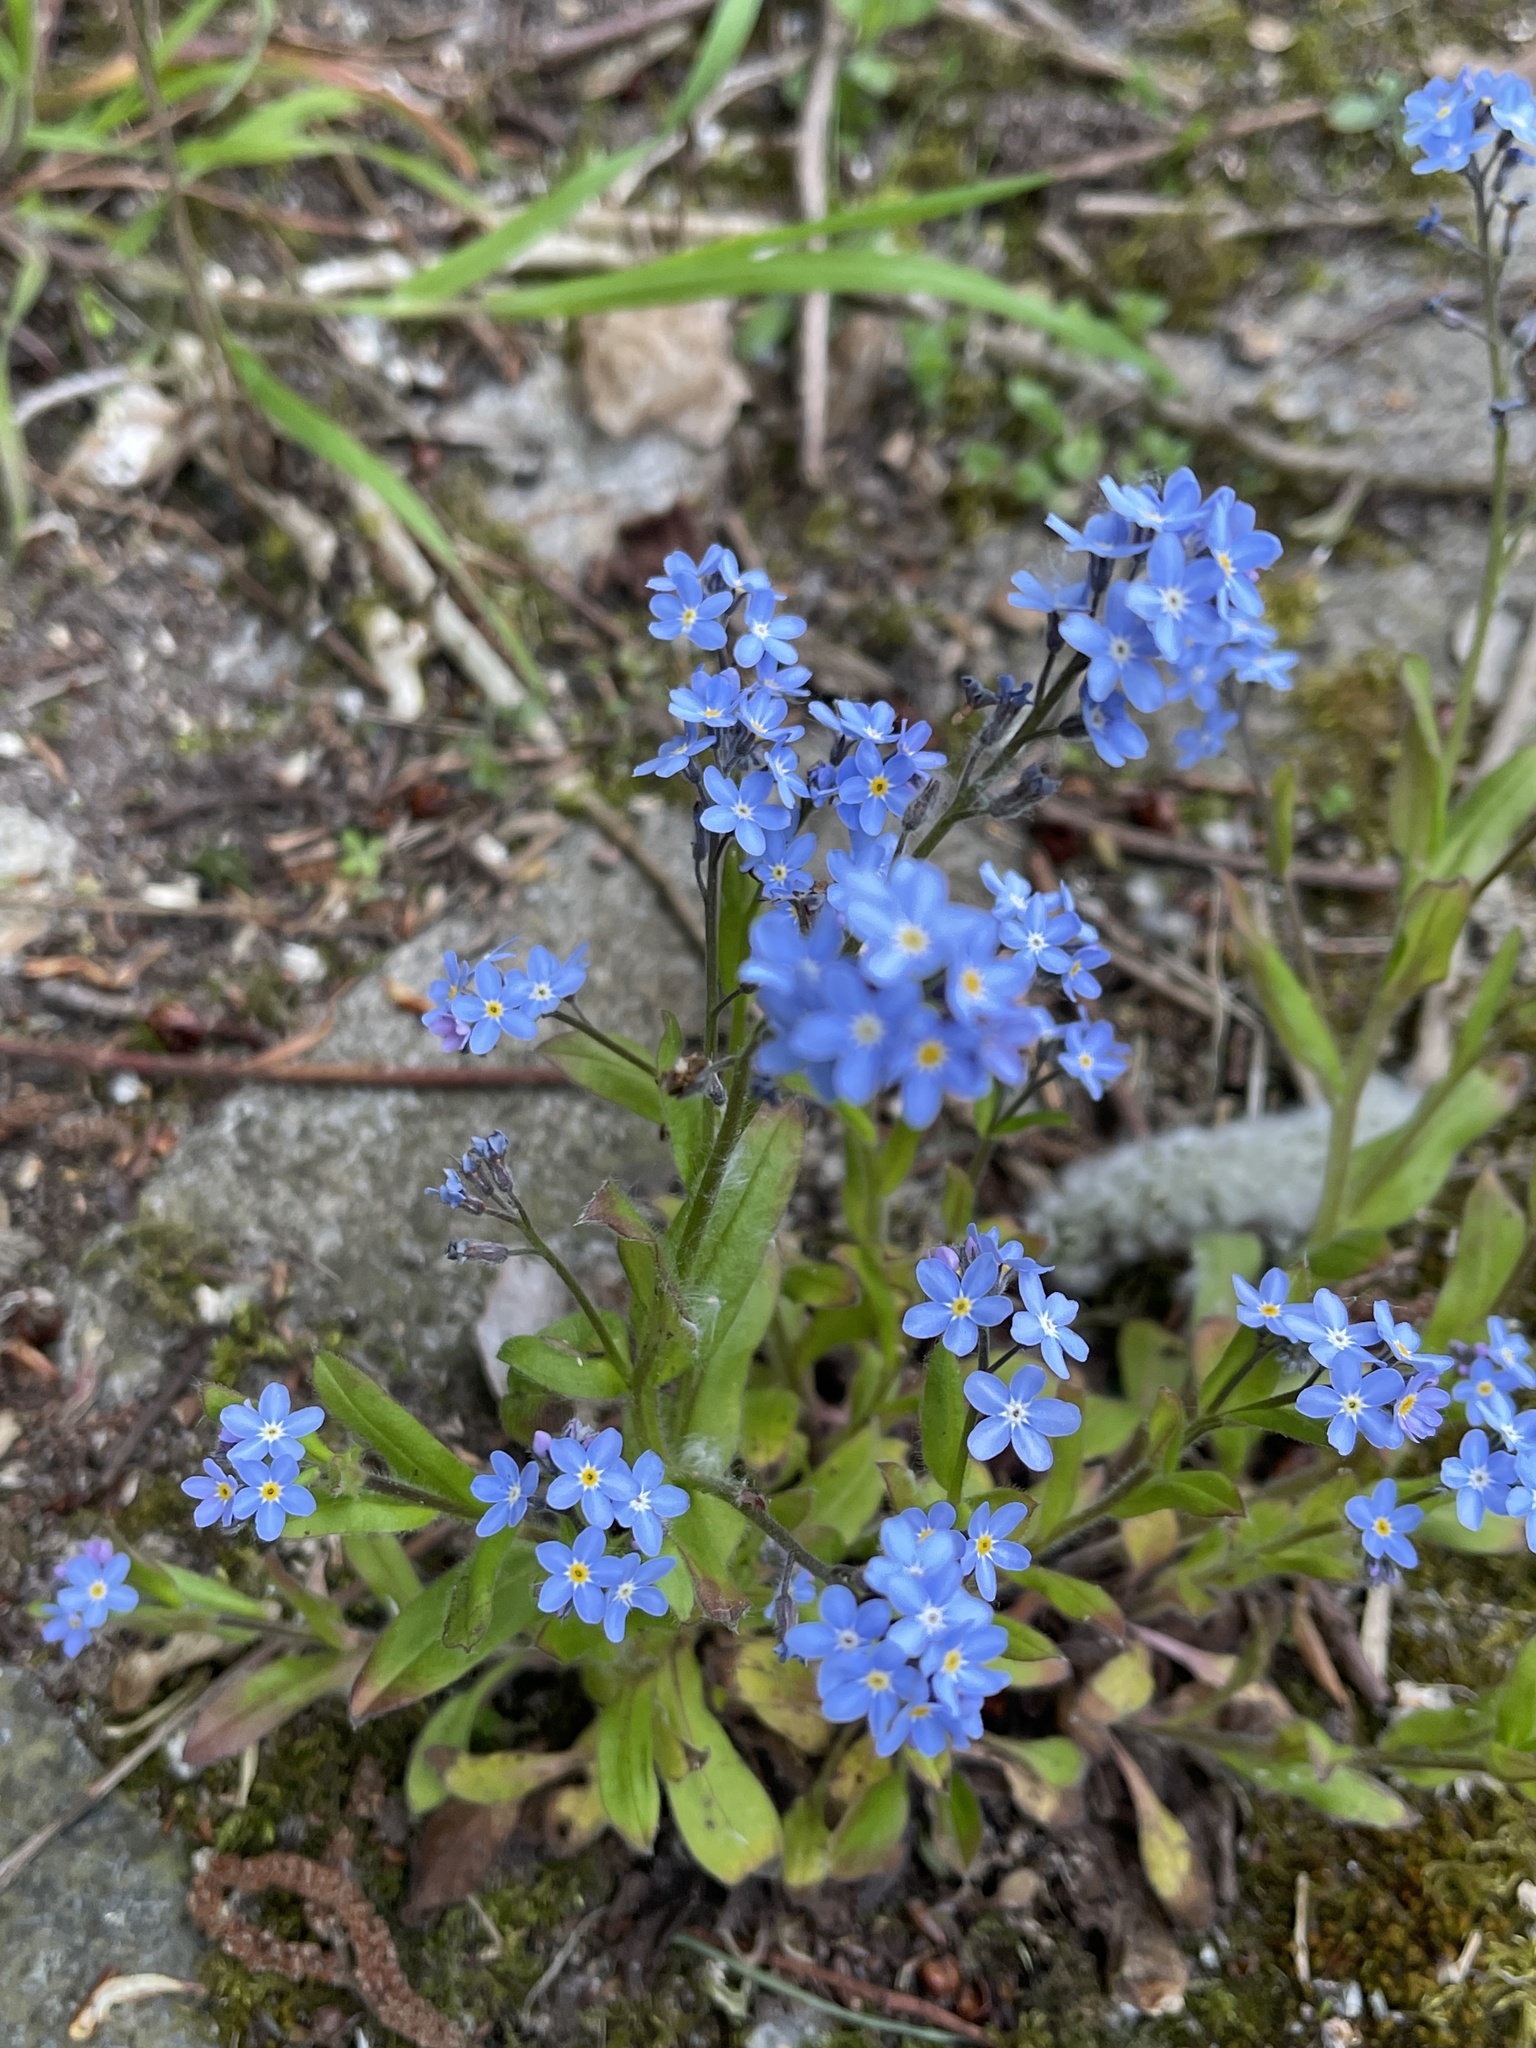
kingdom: Plantae
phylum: Tracheophyta
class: Magnoliopsida
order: Boraginales
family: Boraginaceae
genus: Myosotis
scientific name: Myosotis sylvatica
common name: Wood forget-me-not
